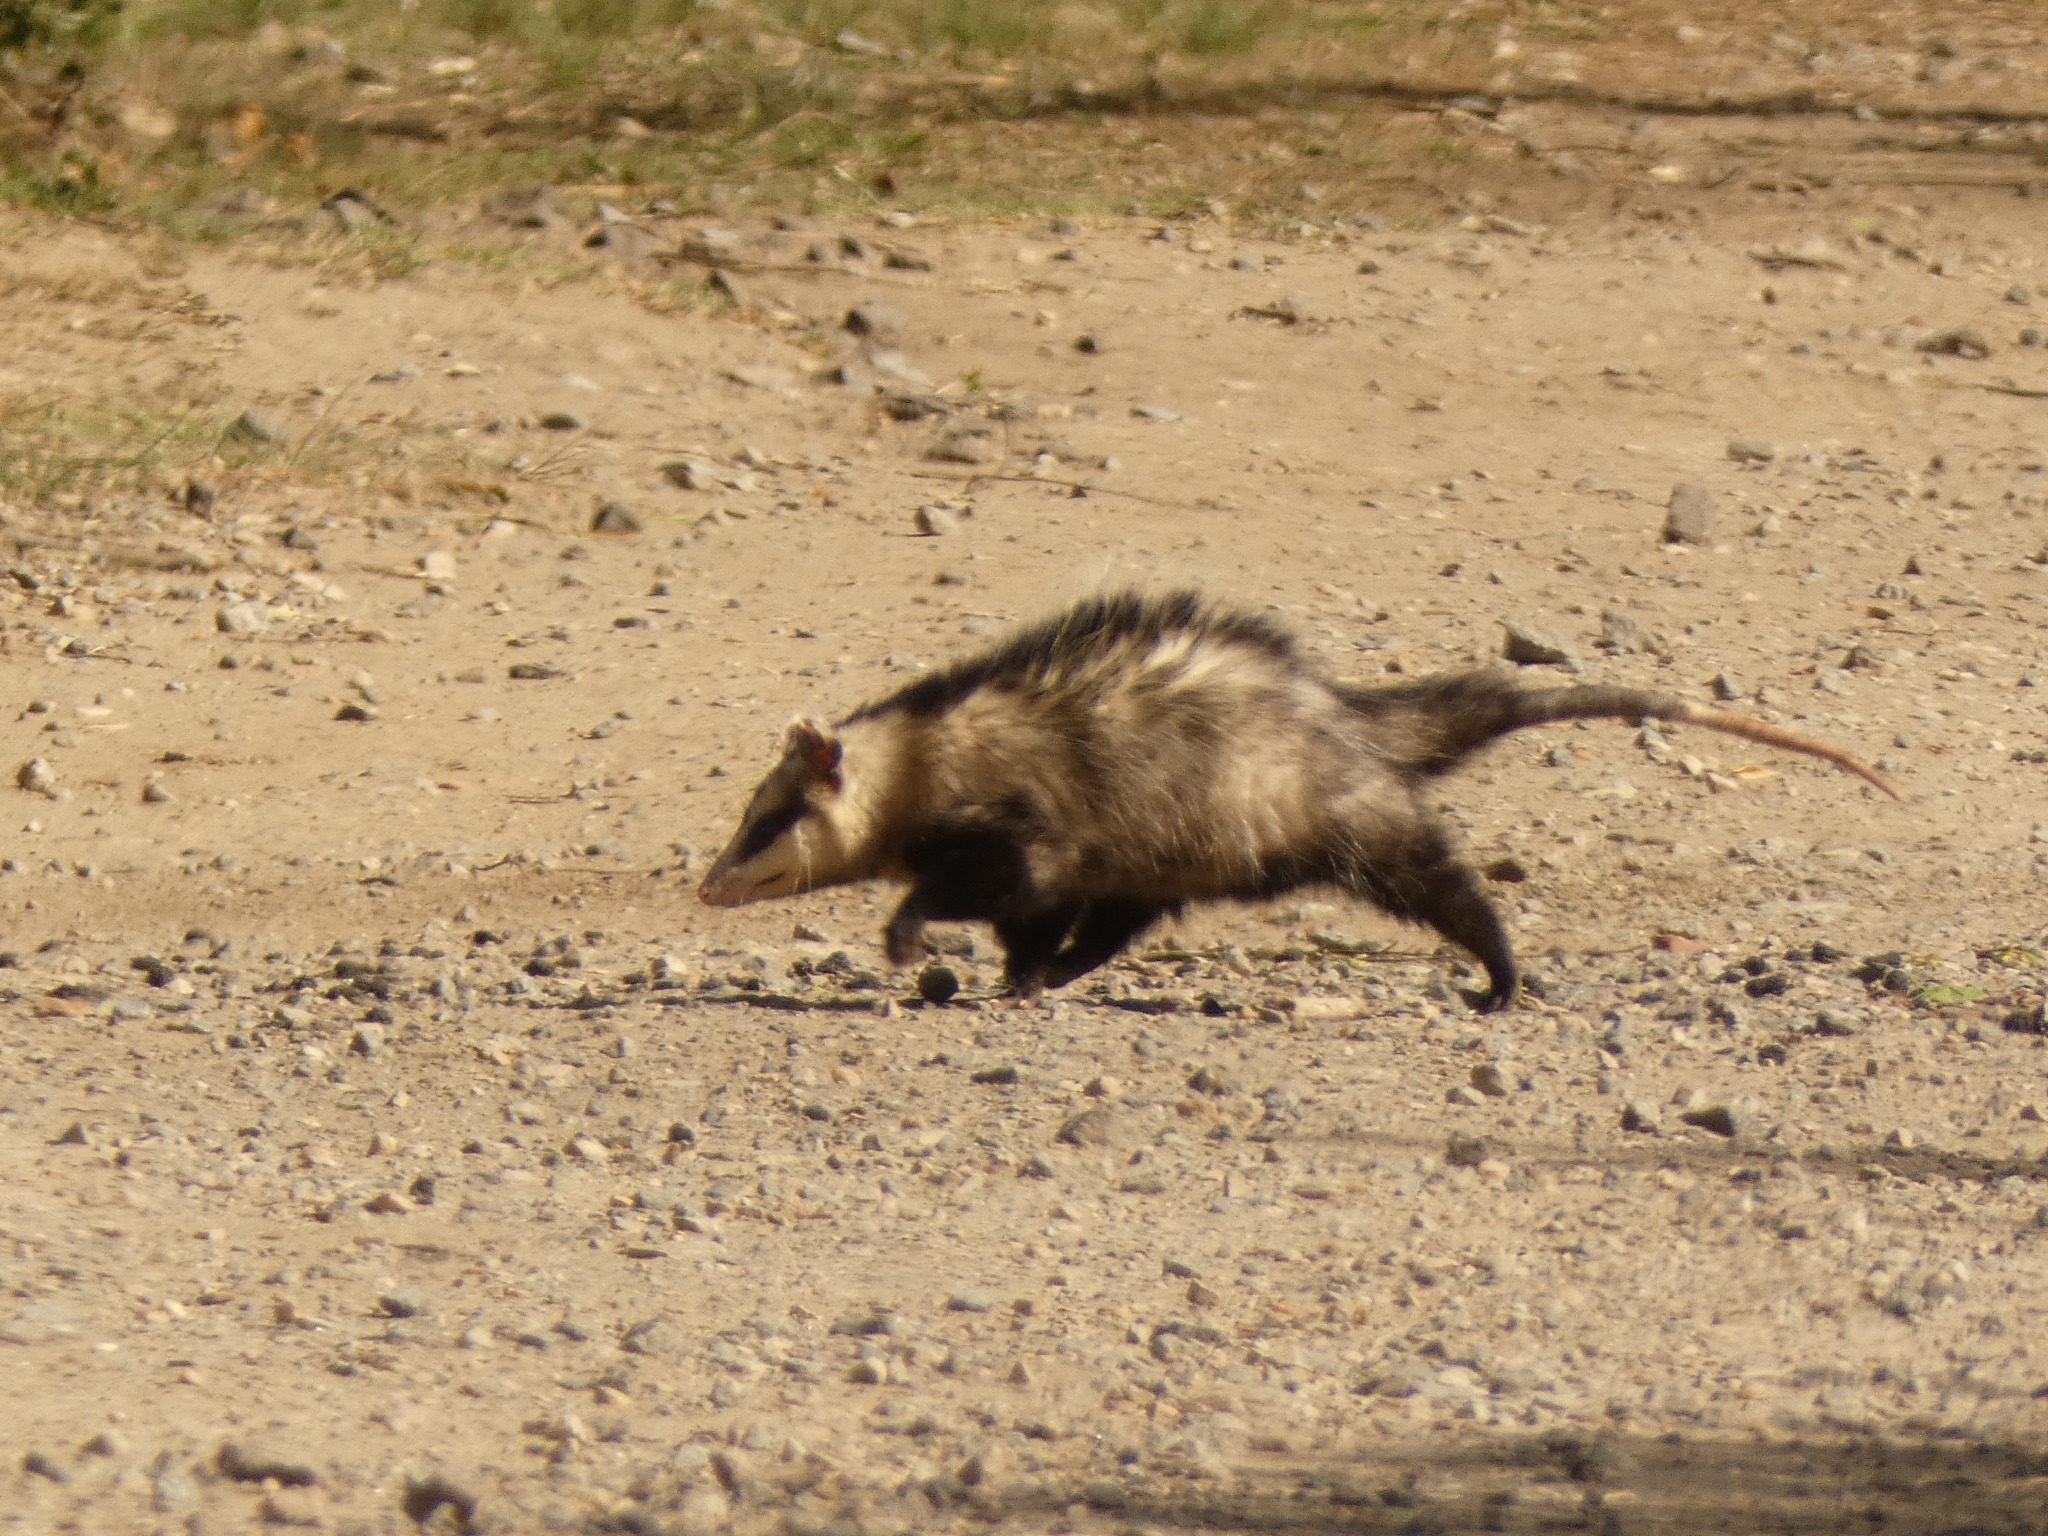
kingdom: Animalia
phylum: Chordata
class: Mammalia
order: Didelphimorphia
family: Didelphidae
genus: Didelphis
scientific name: Didelphis albiventris
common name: White-eared opossum
